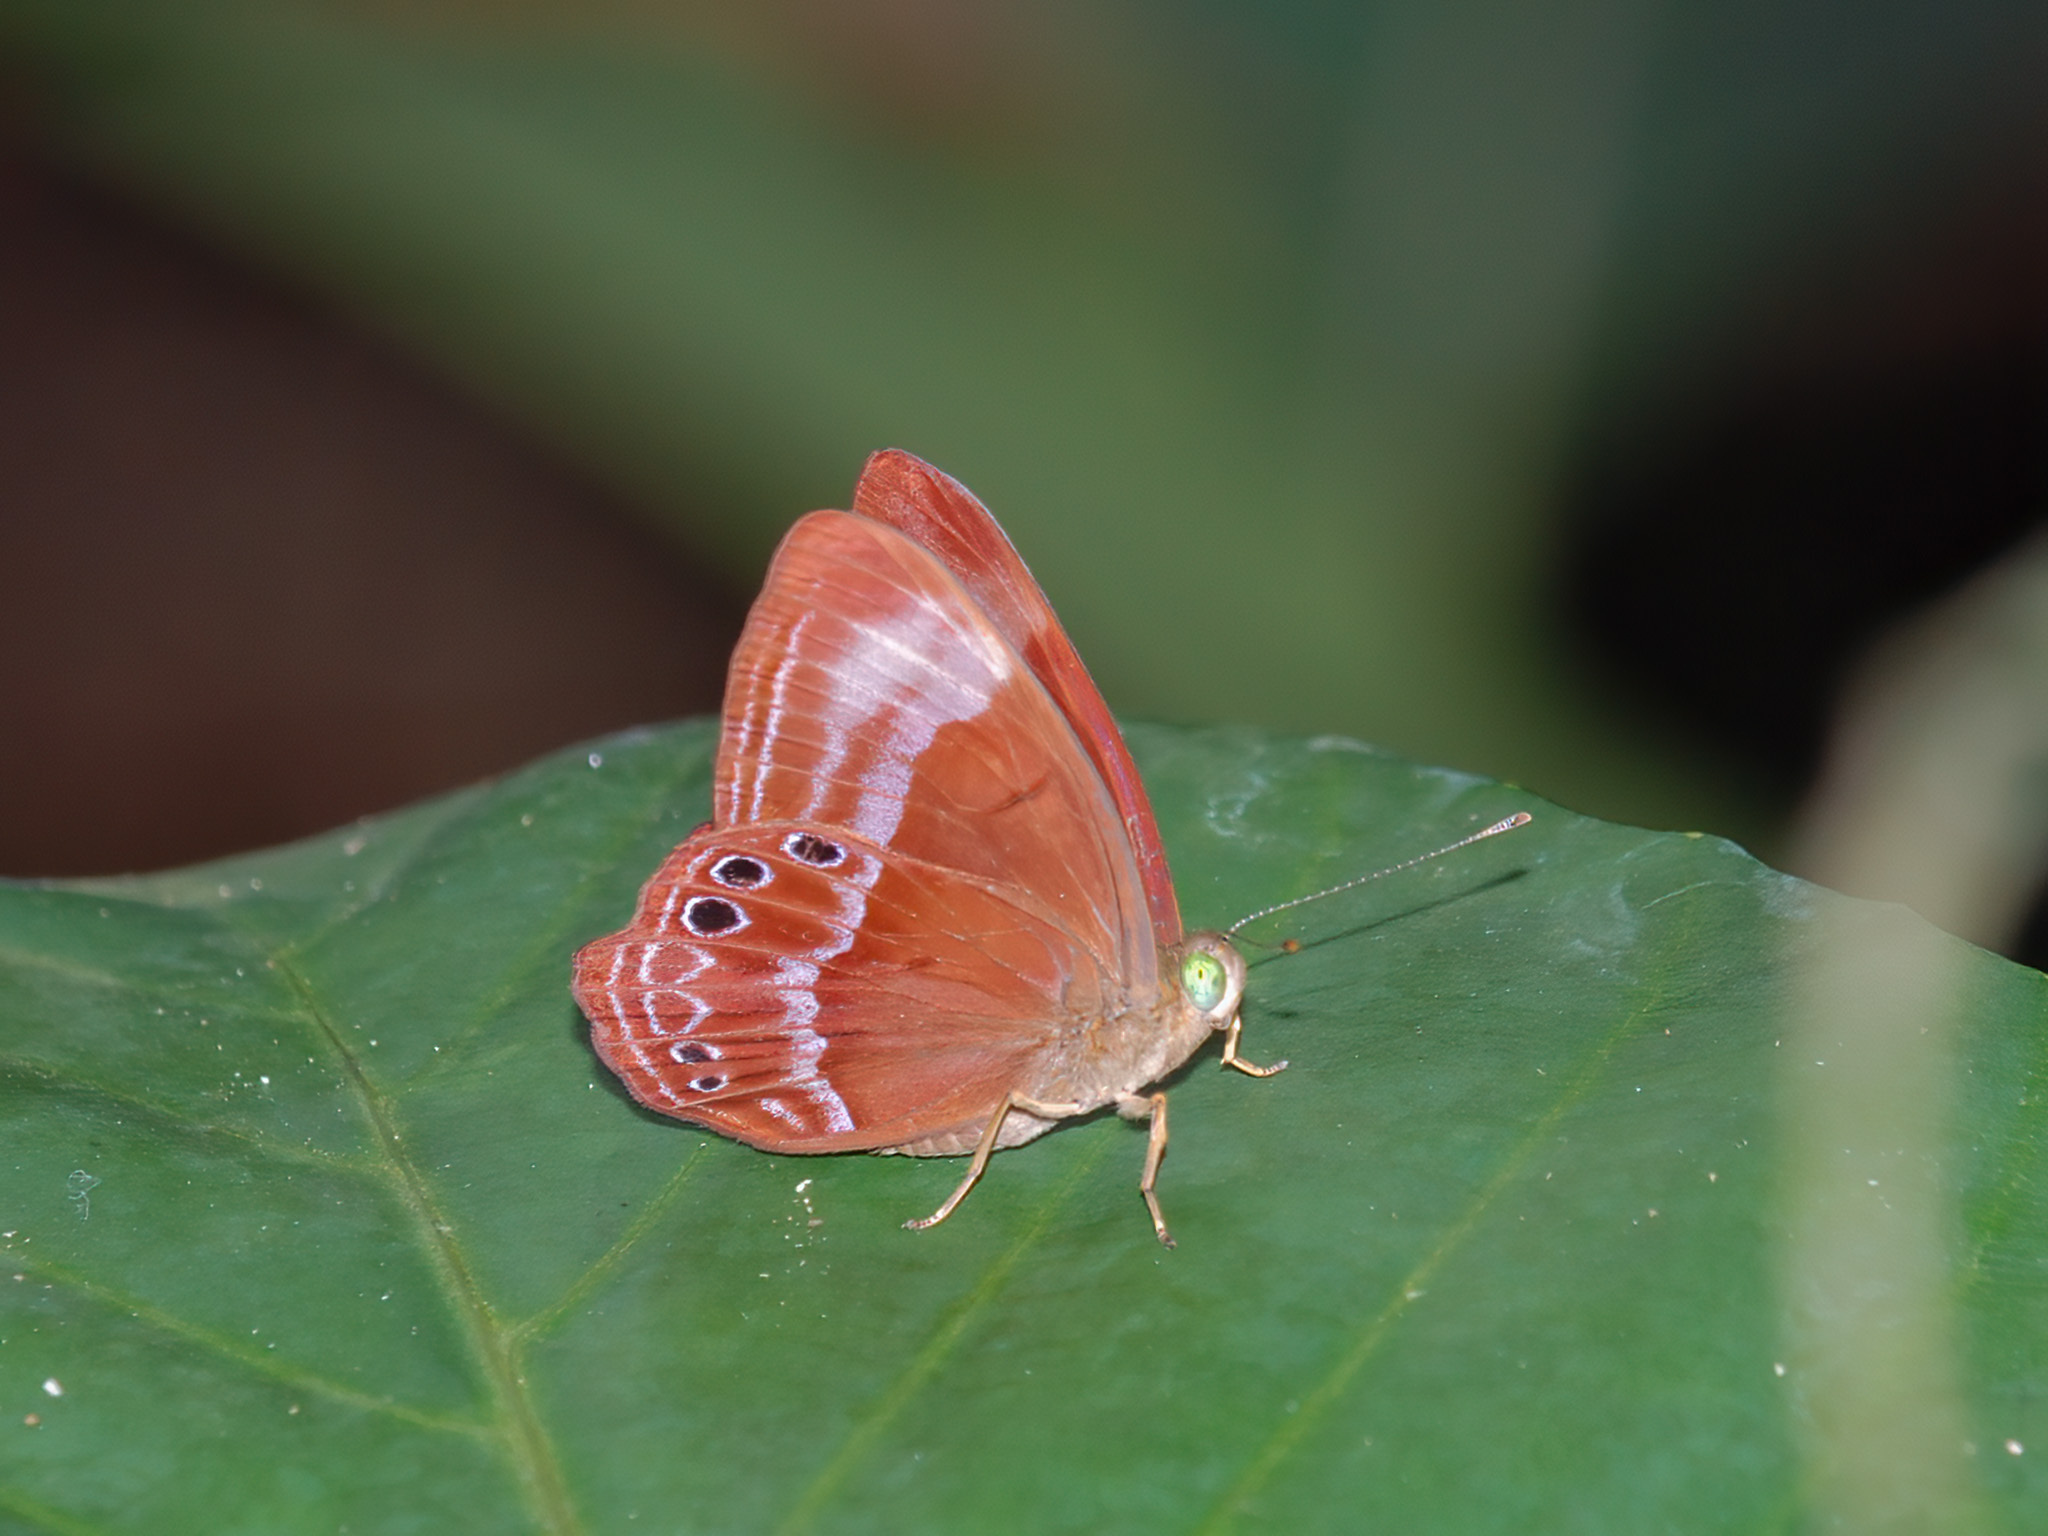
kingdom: Animalia
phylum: Arthropoda
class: Insecta
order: Lepidoptera
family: Lycaenidae
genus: Abisara
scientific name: Abisara geza
